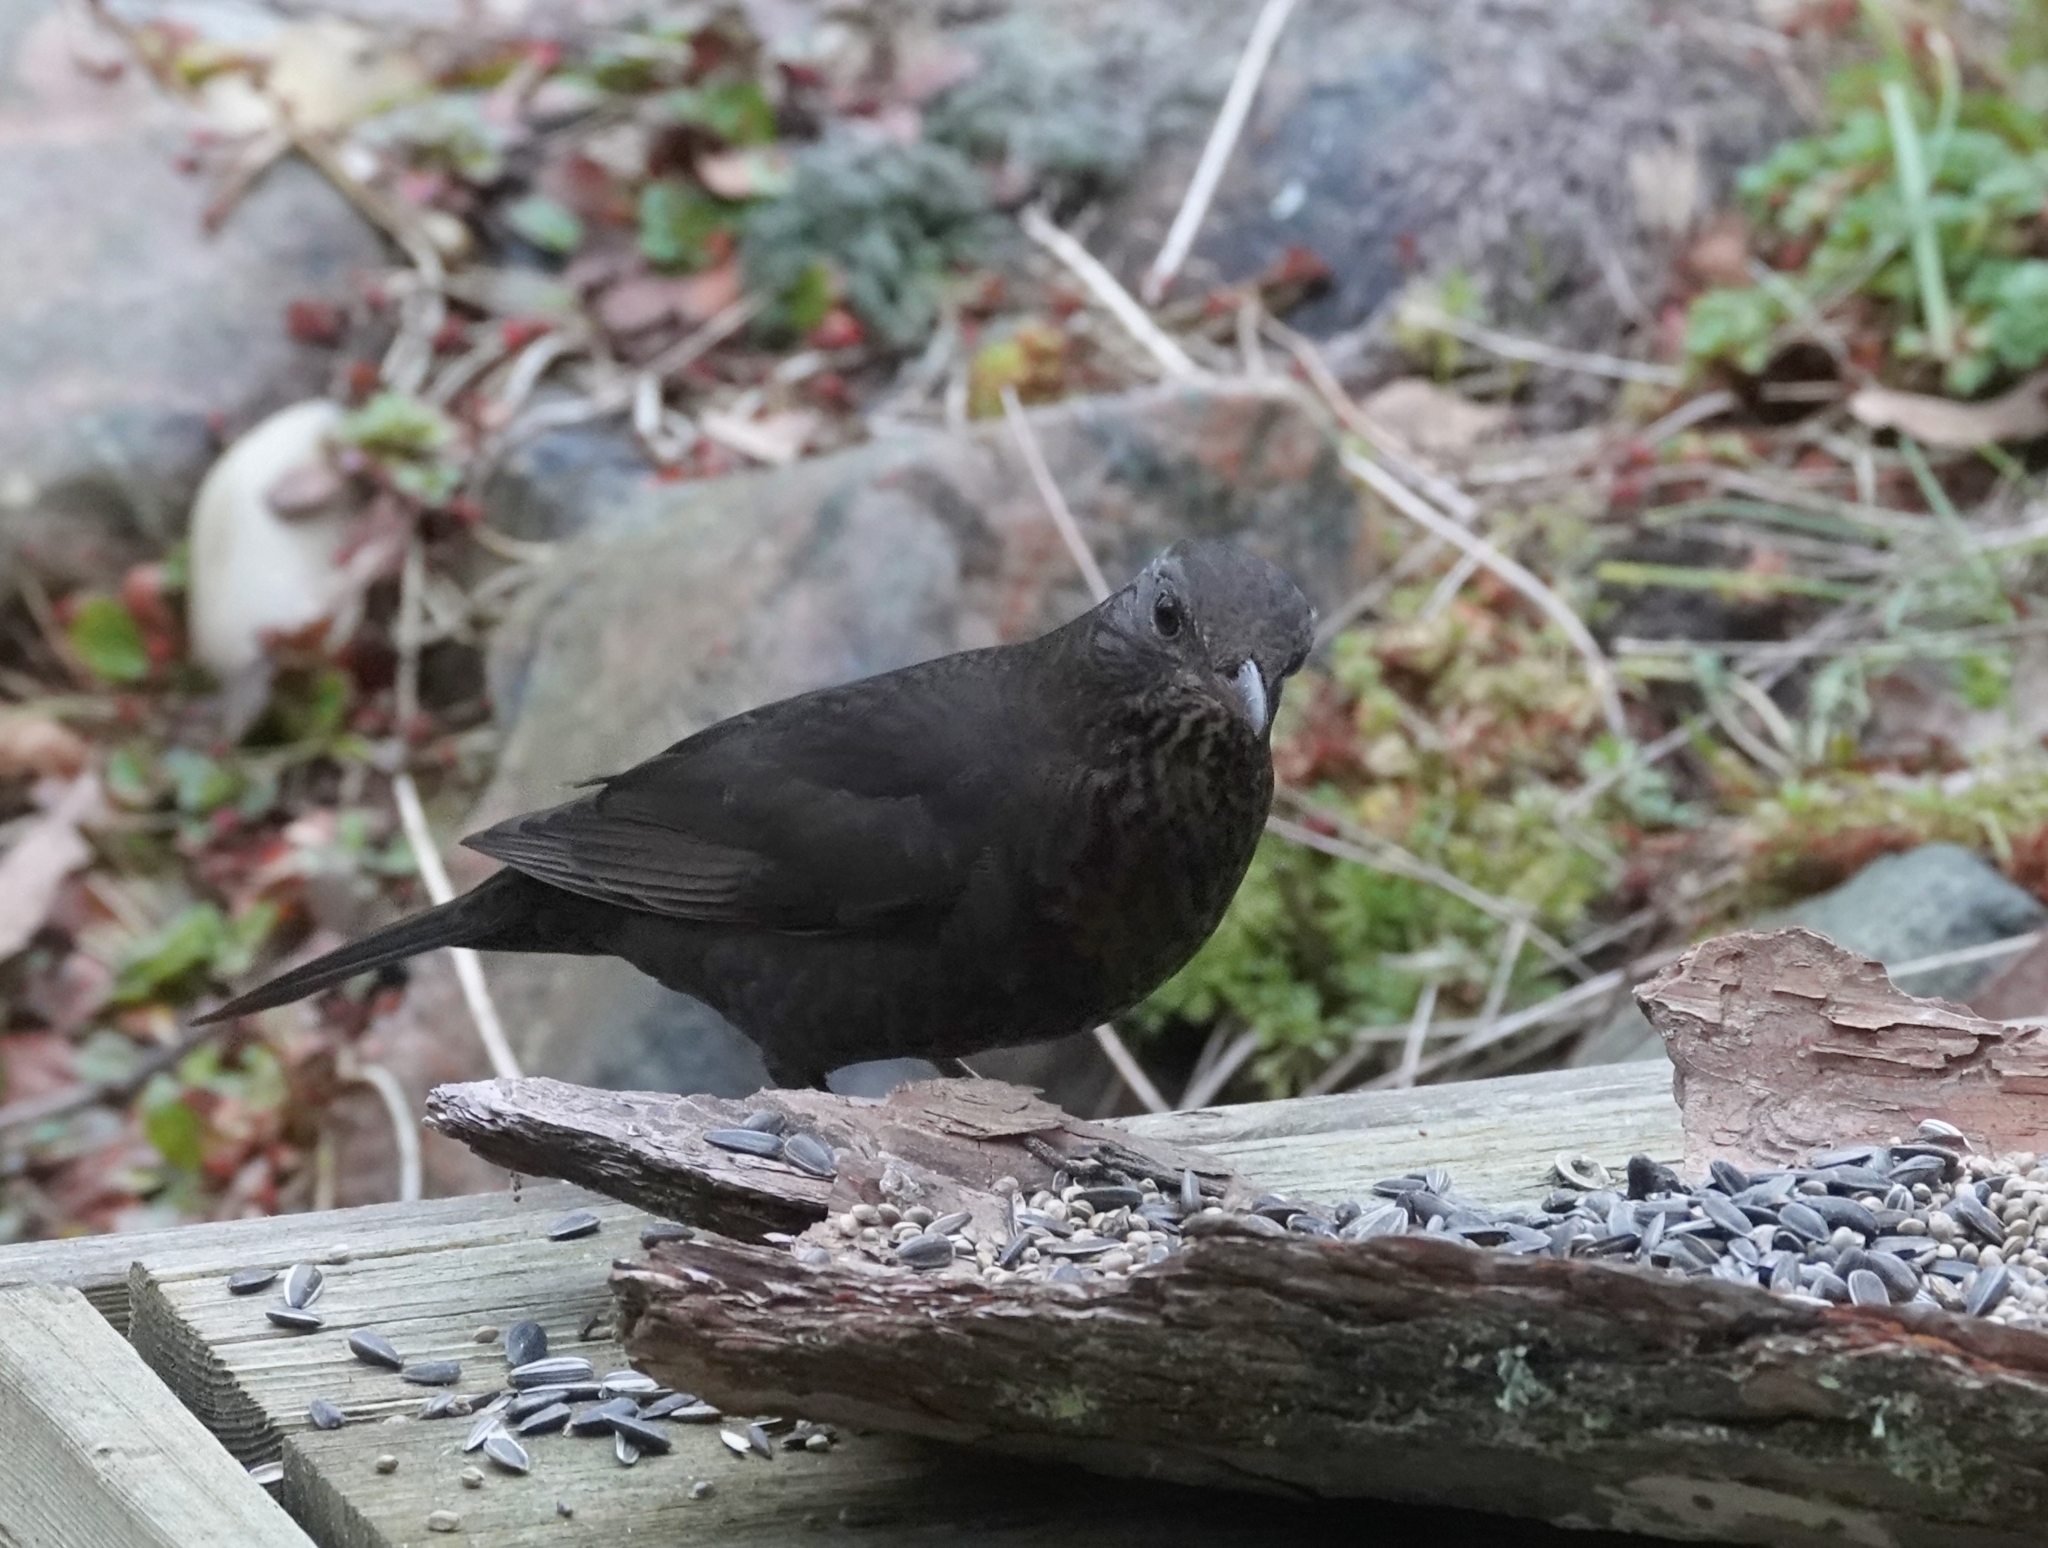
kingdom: Animalia
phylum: Chordata
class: Aves
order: Passeriformes
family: Turdidae
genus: Turdus
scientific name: Turdus merula
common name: Common blackbird
